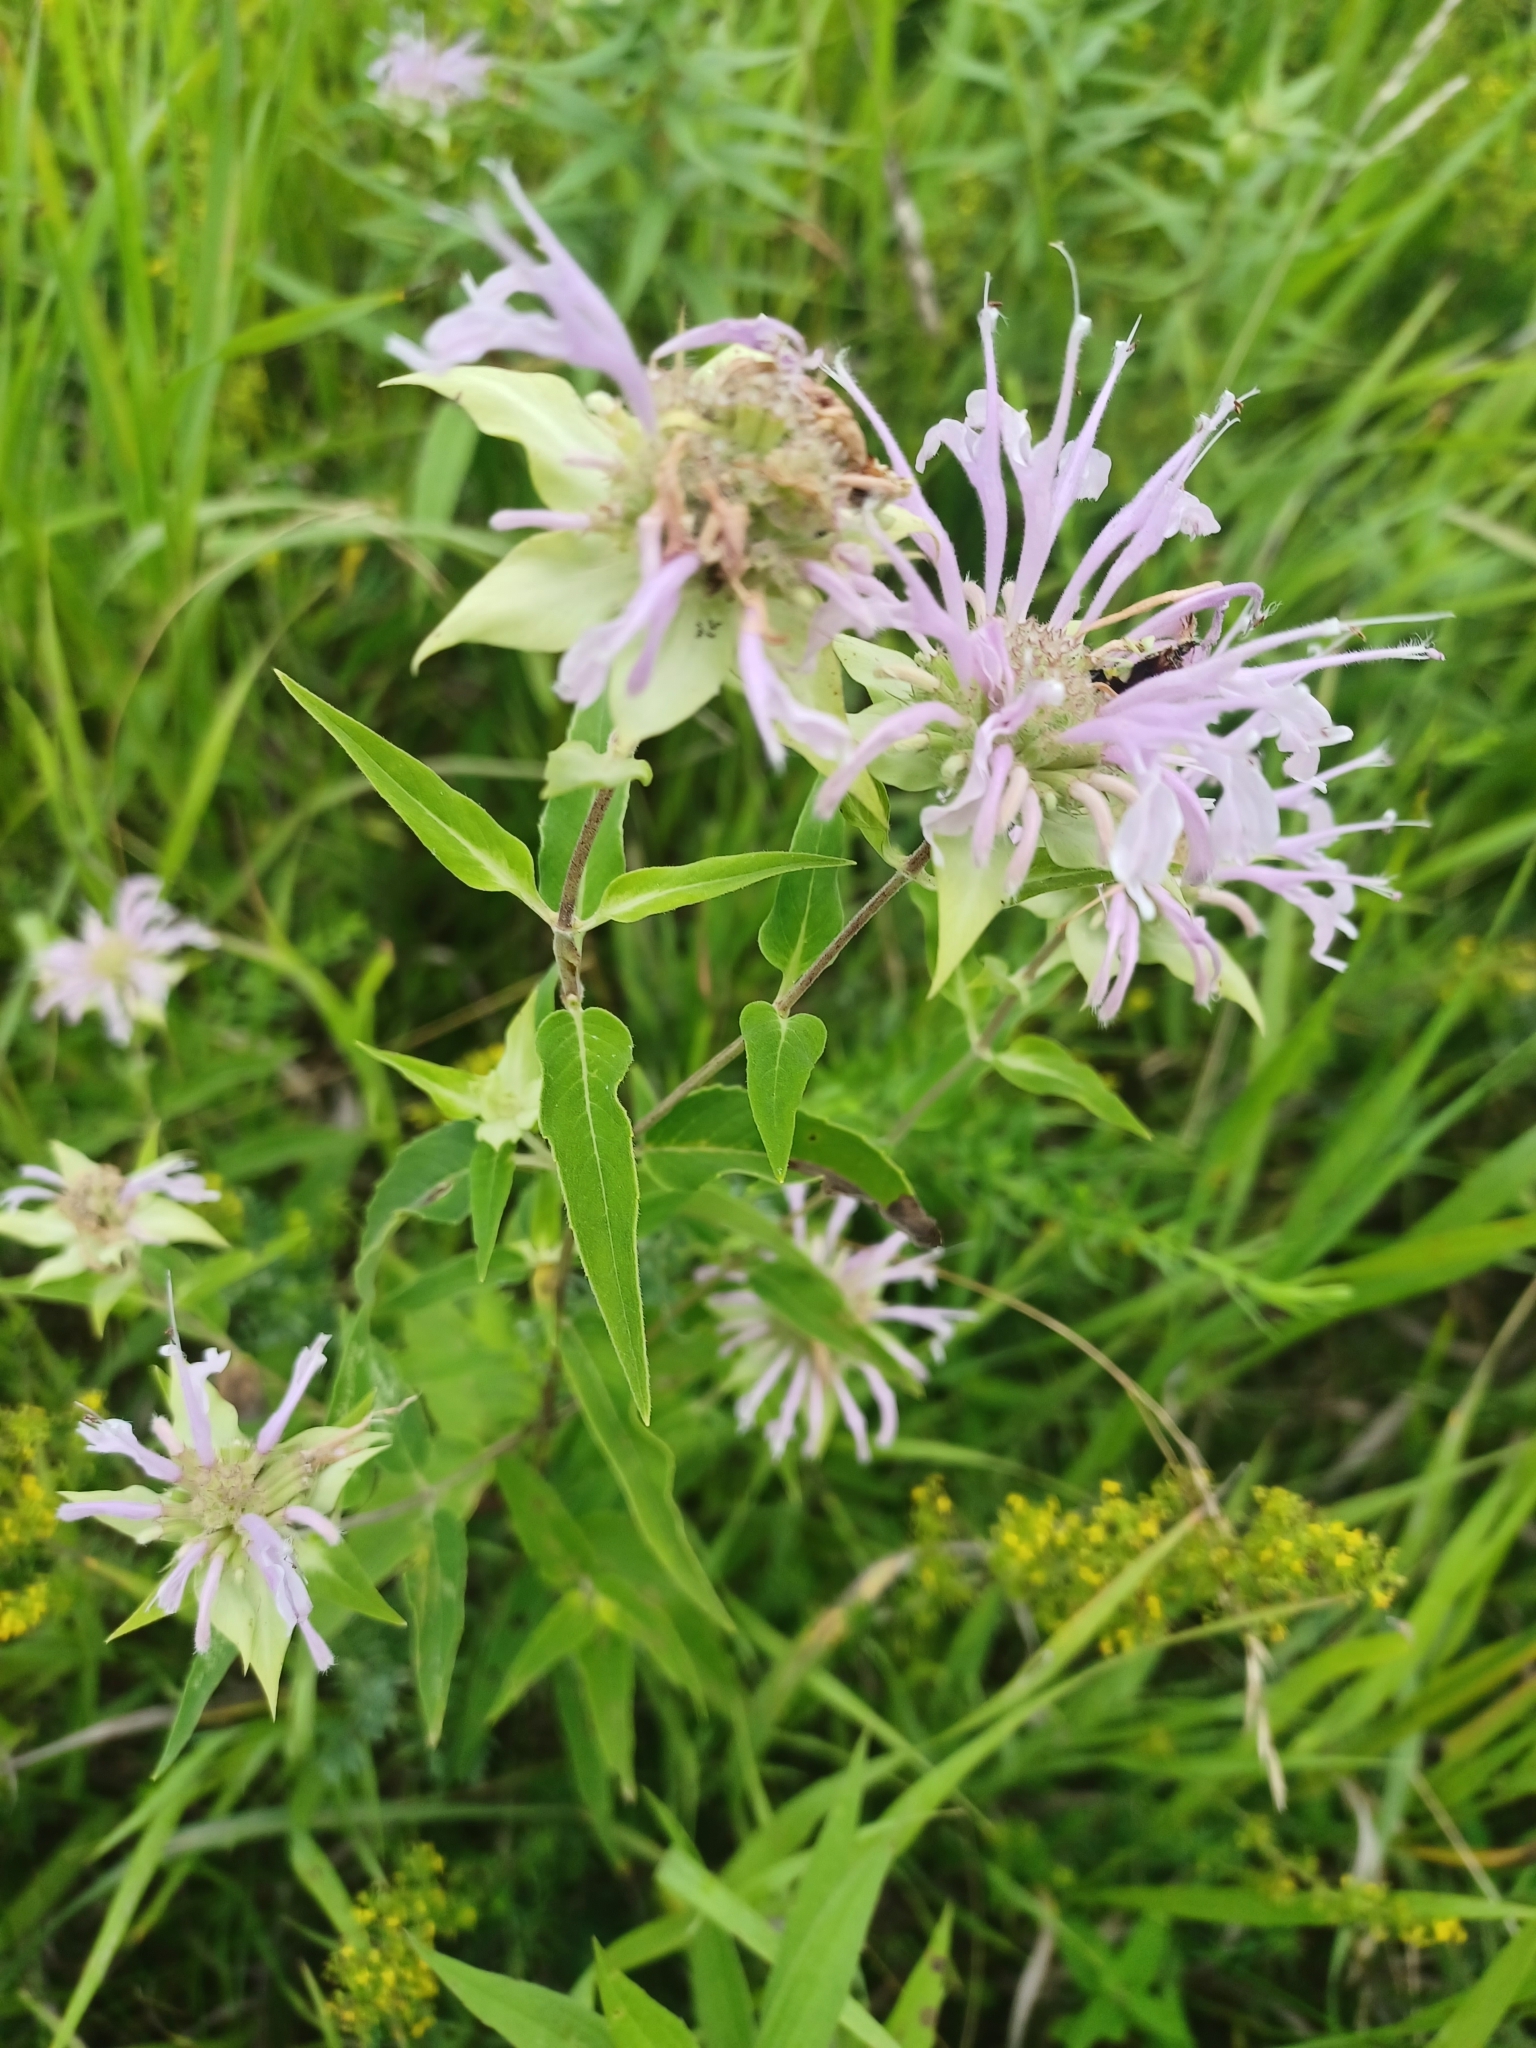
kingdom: Plantae
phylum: Tracheophyta
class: Magnoliopsida
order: Lamiales
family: Lamiaceae
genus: Monarda
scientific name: Monarda fistulosa
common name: Purple beebalm
